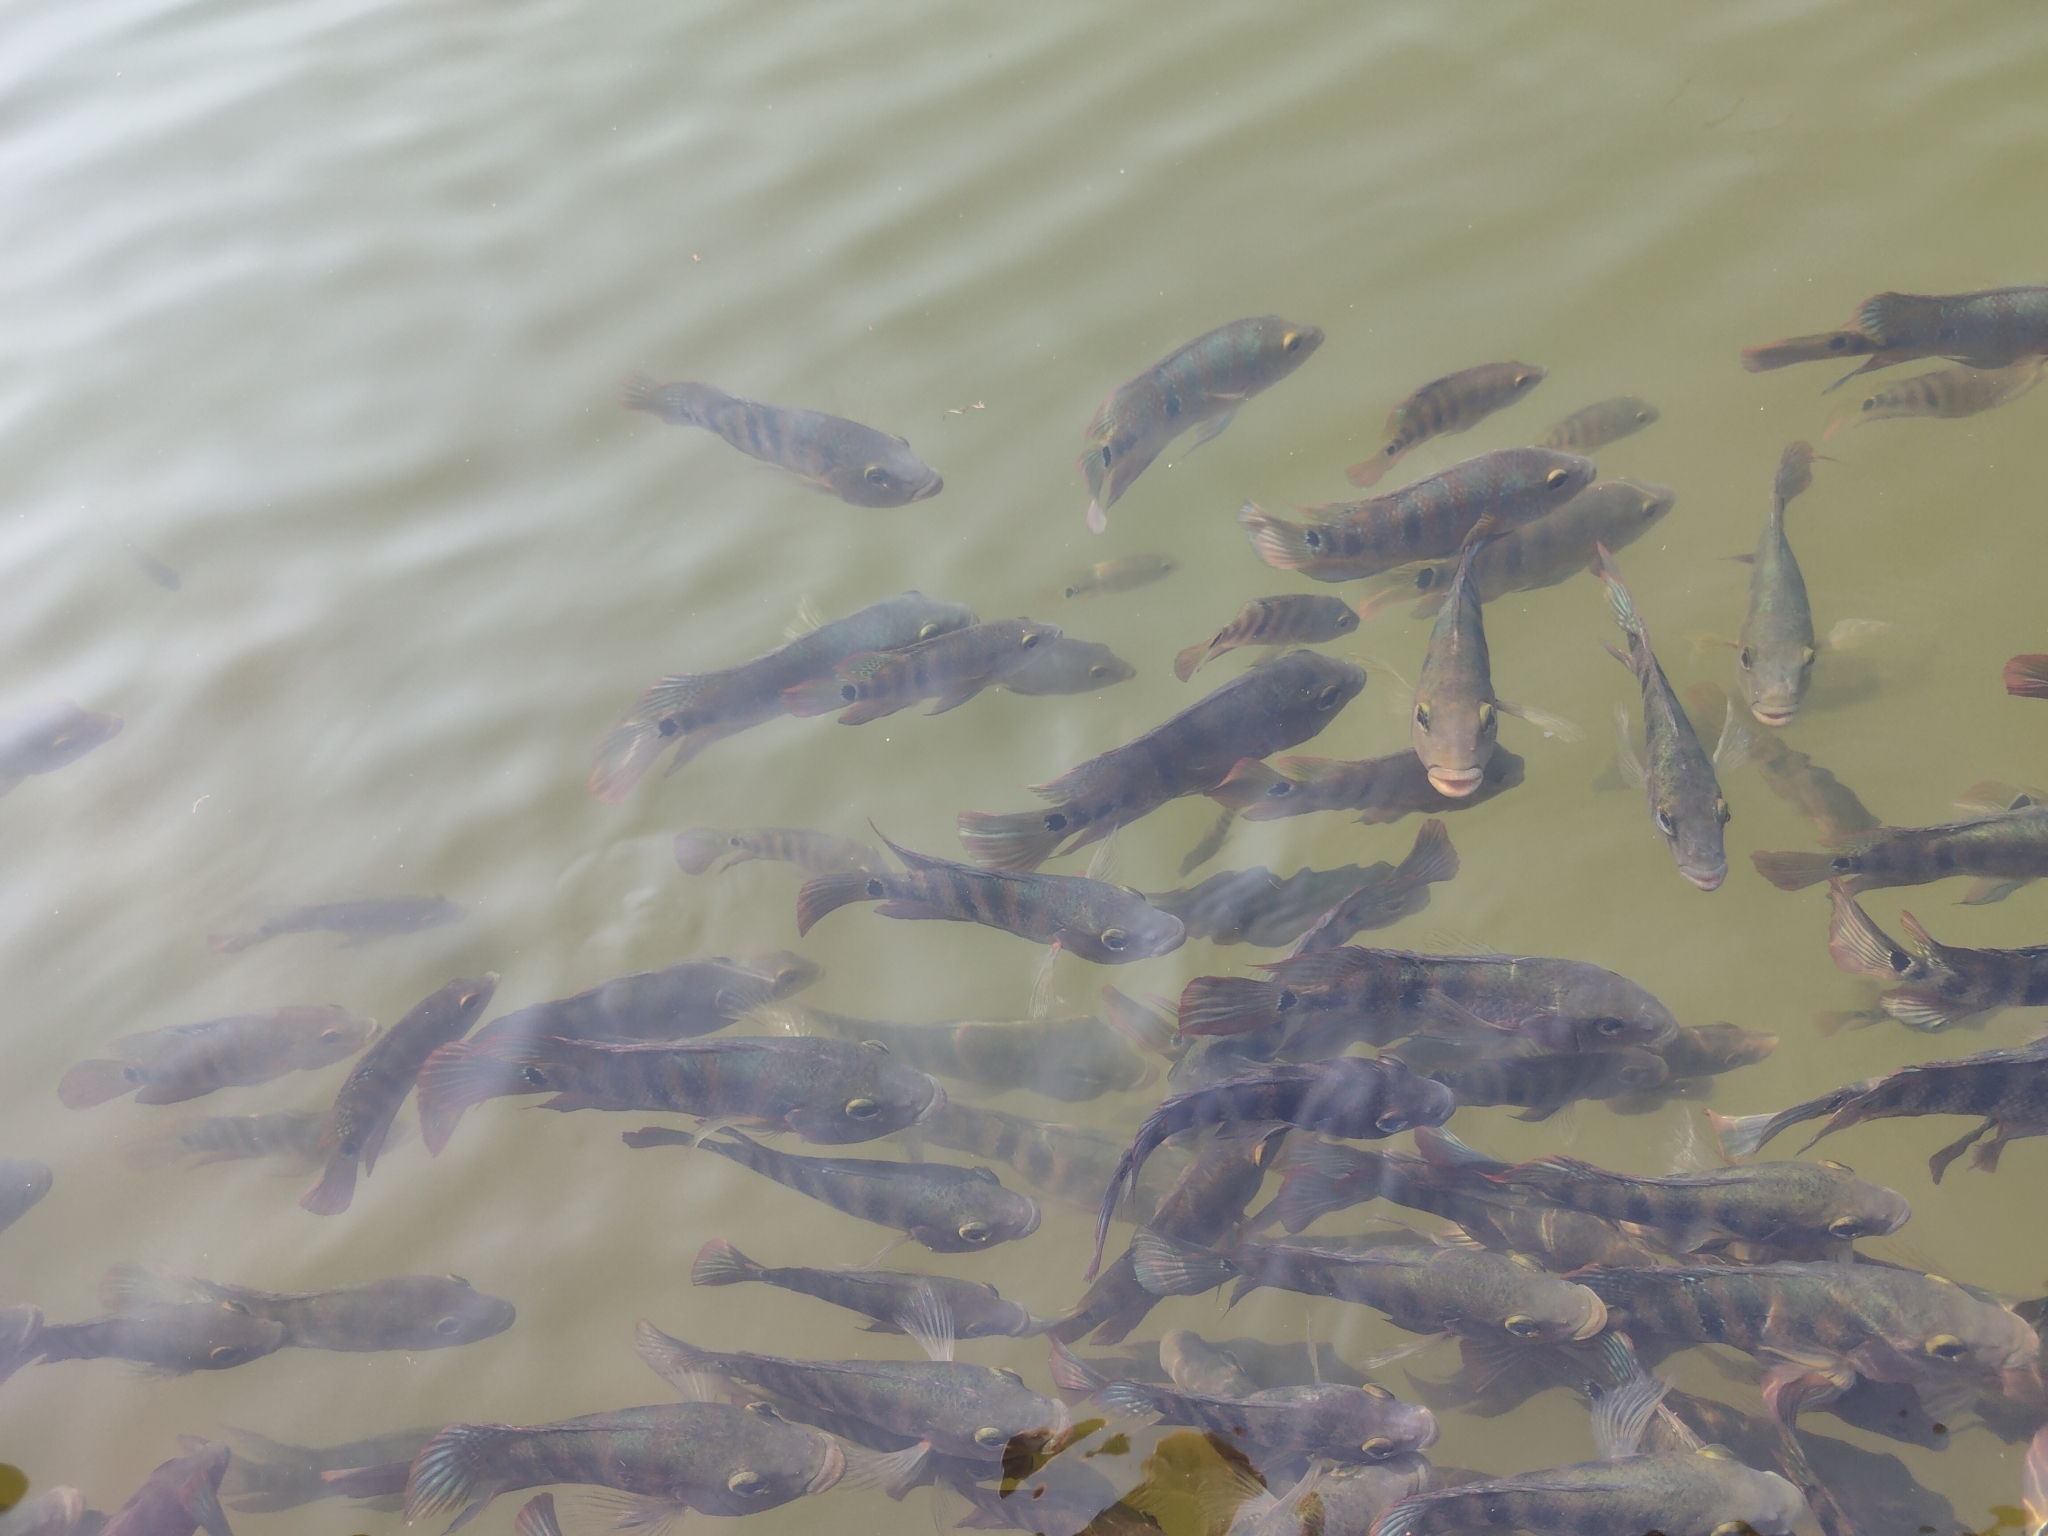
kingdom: Animalia
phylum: Chordata
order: Perciformes
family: Cichlidae
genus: Mayaheros
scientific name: Mayaheros urophthalmus
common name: Mayan cichlid
